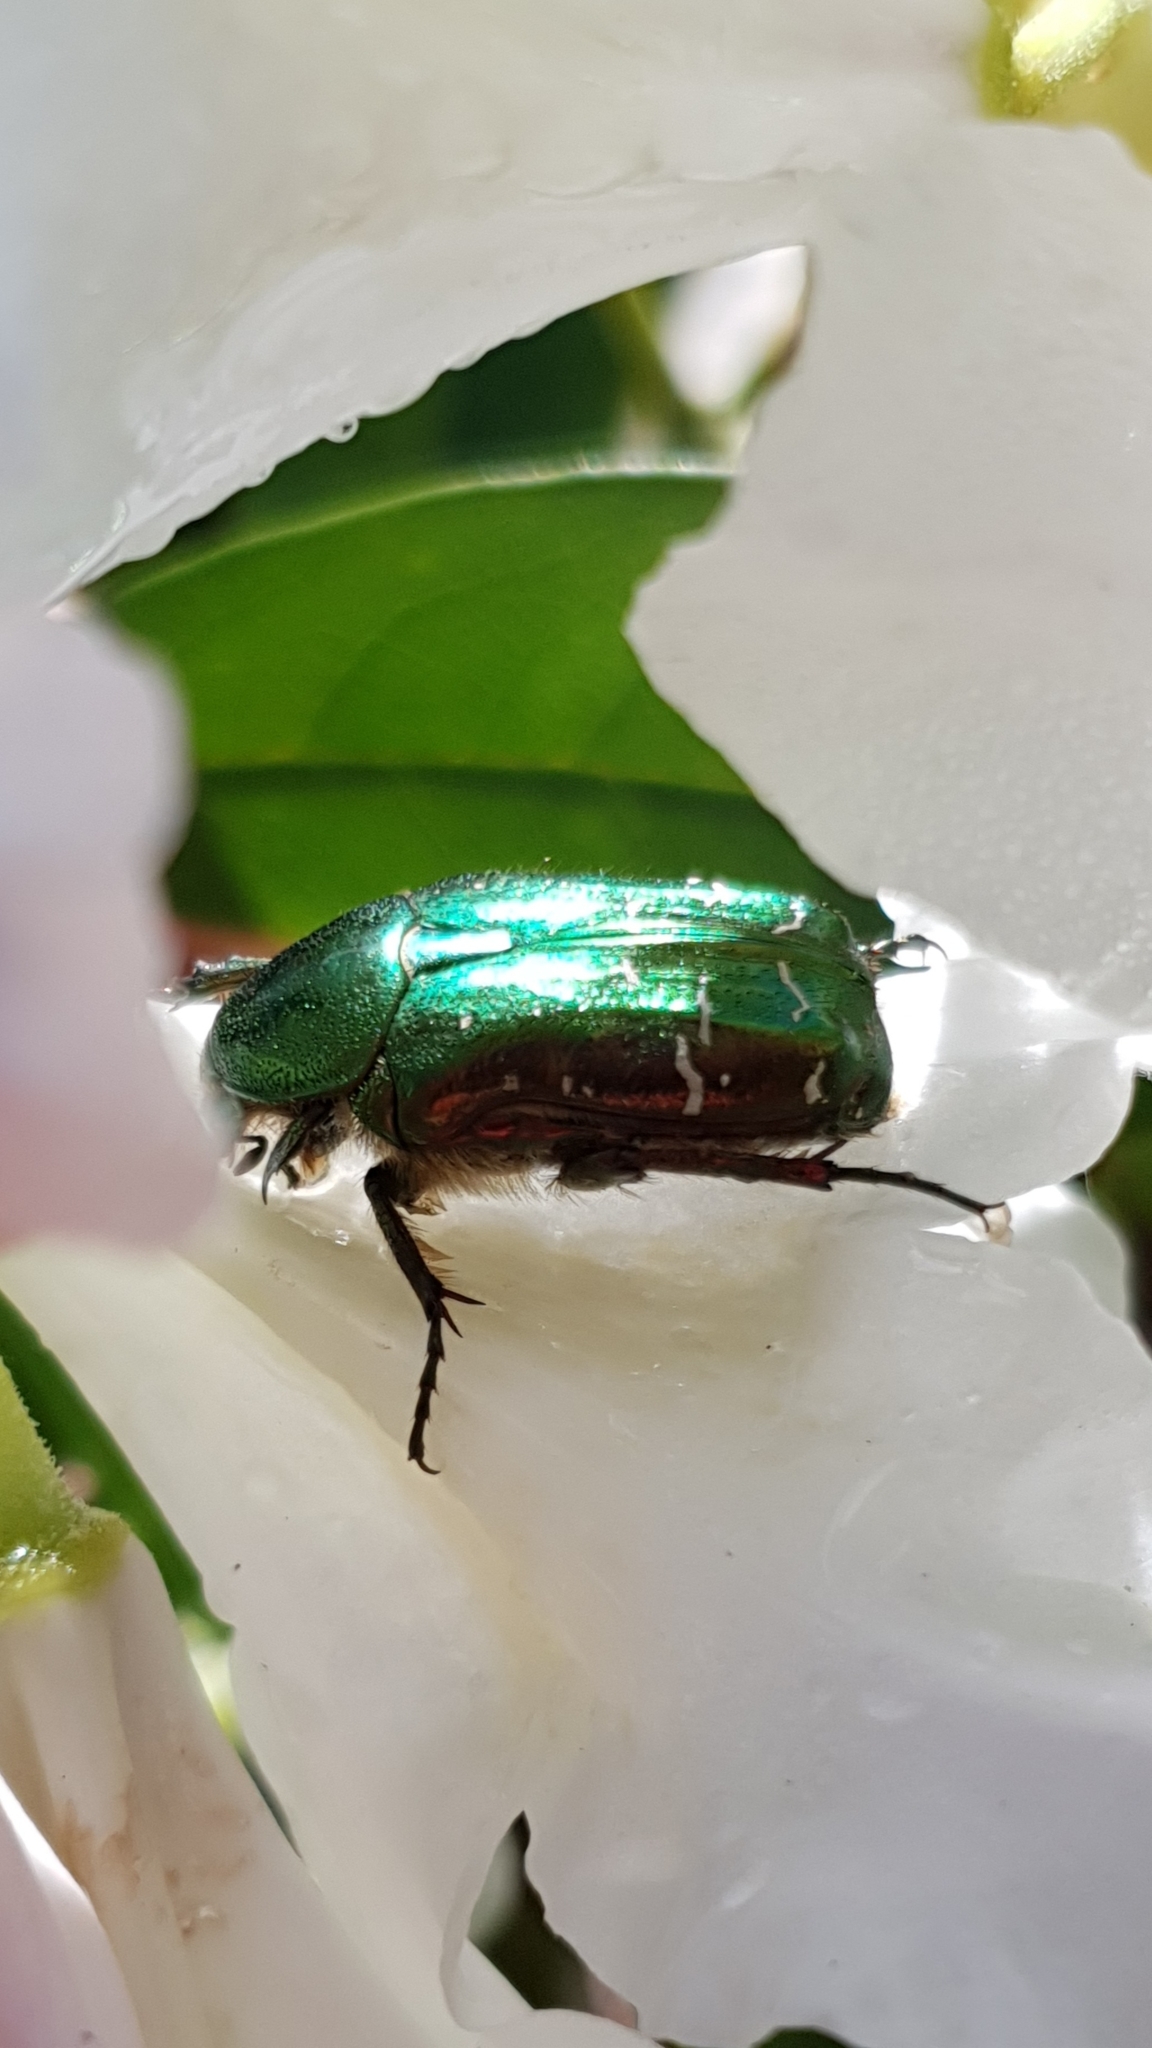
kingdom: Animalia
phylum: Arthropoda
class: Insecta
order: Coleoptera
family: Scarabaeidae
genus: Cetonia
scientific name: Cetonia aurata
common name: Rose chafer
